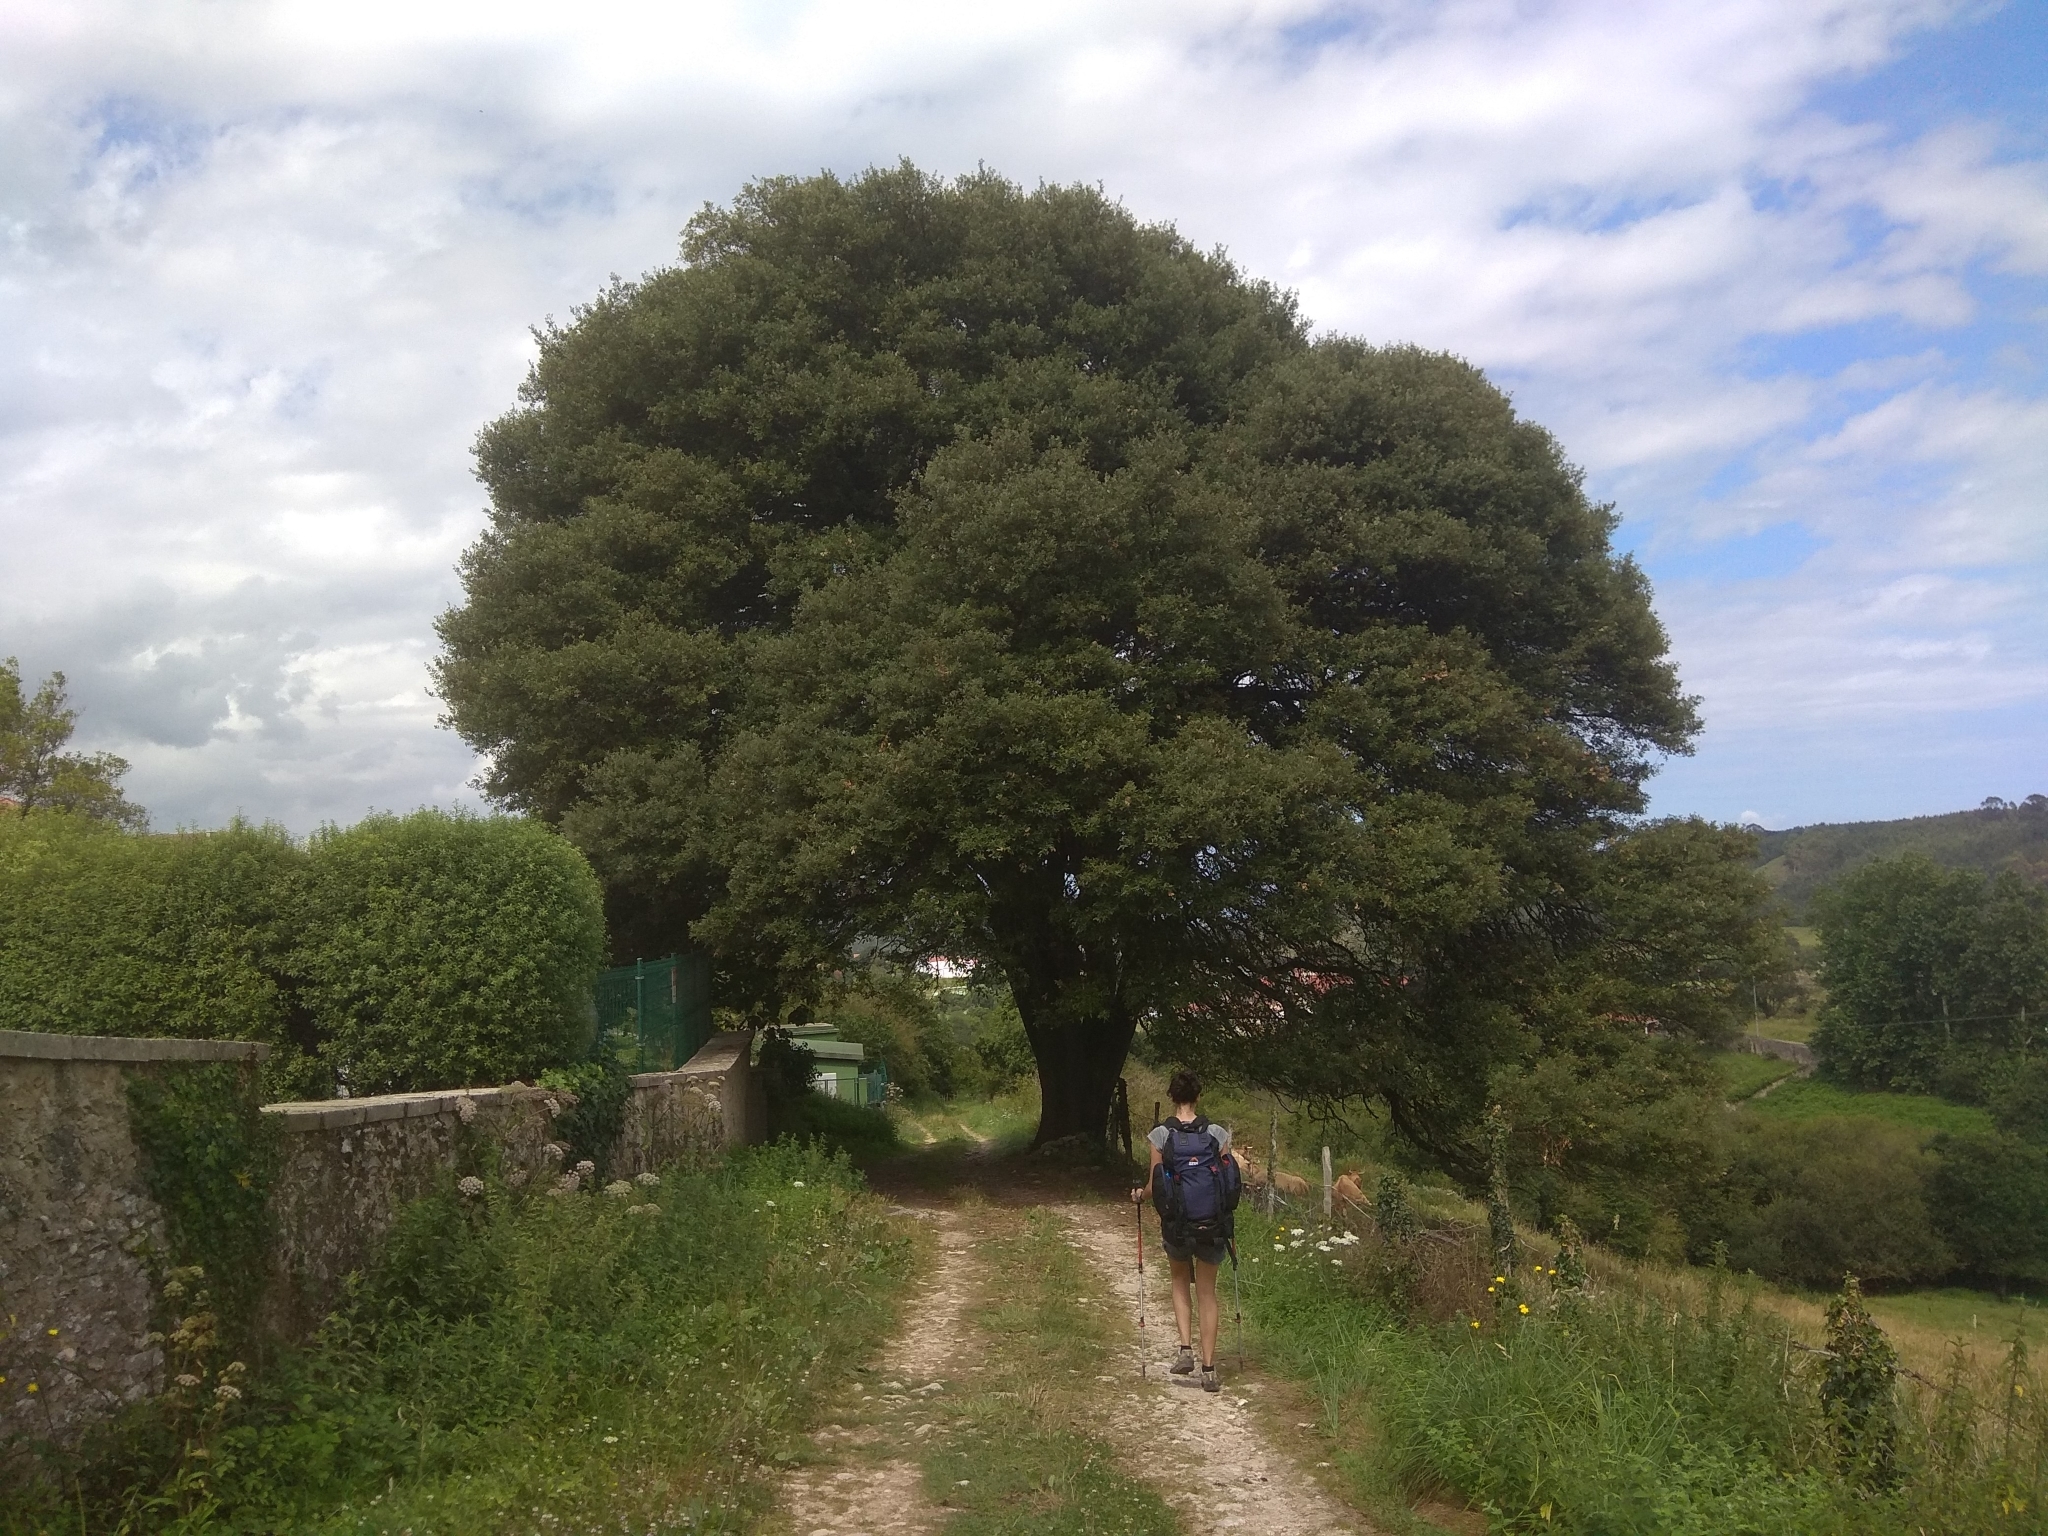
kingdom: Plantae
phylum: Tracheophyta
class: Magnoliopsida
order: Fagales
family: Fagaceae
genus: Quercus
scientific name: Quercus ilex
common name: Evergreen oak
